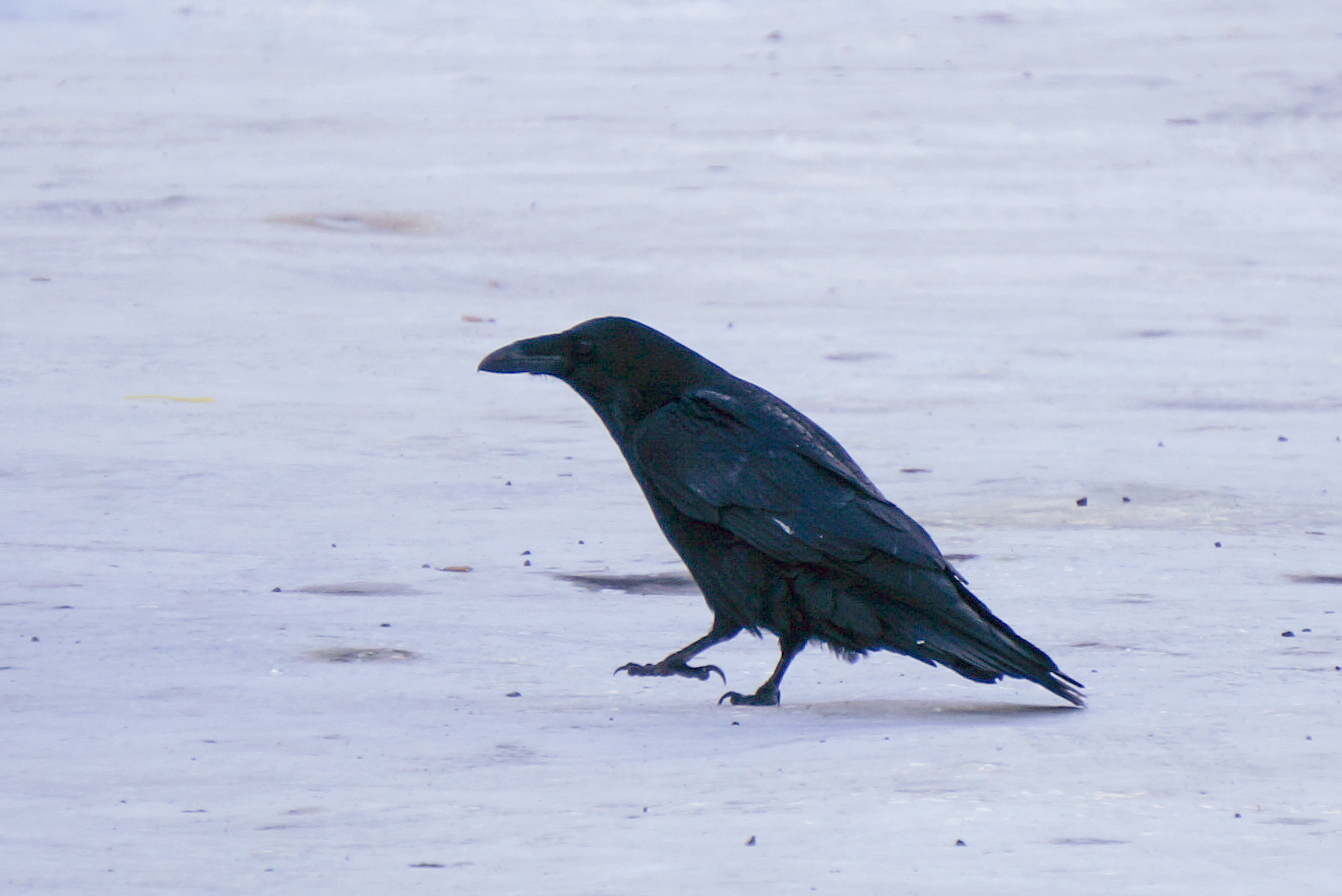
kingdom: Animalia
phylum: Chordata
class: Aves
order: Passeriformes
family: Corvidae
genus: Corvus
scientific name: Corvus corax
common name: Common raven
